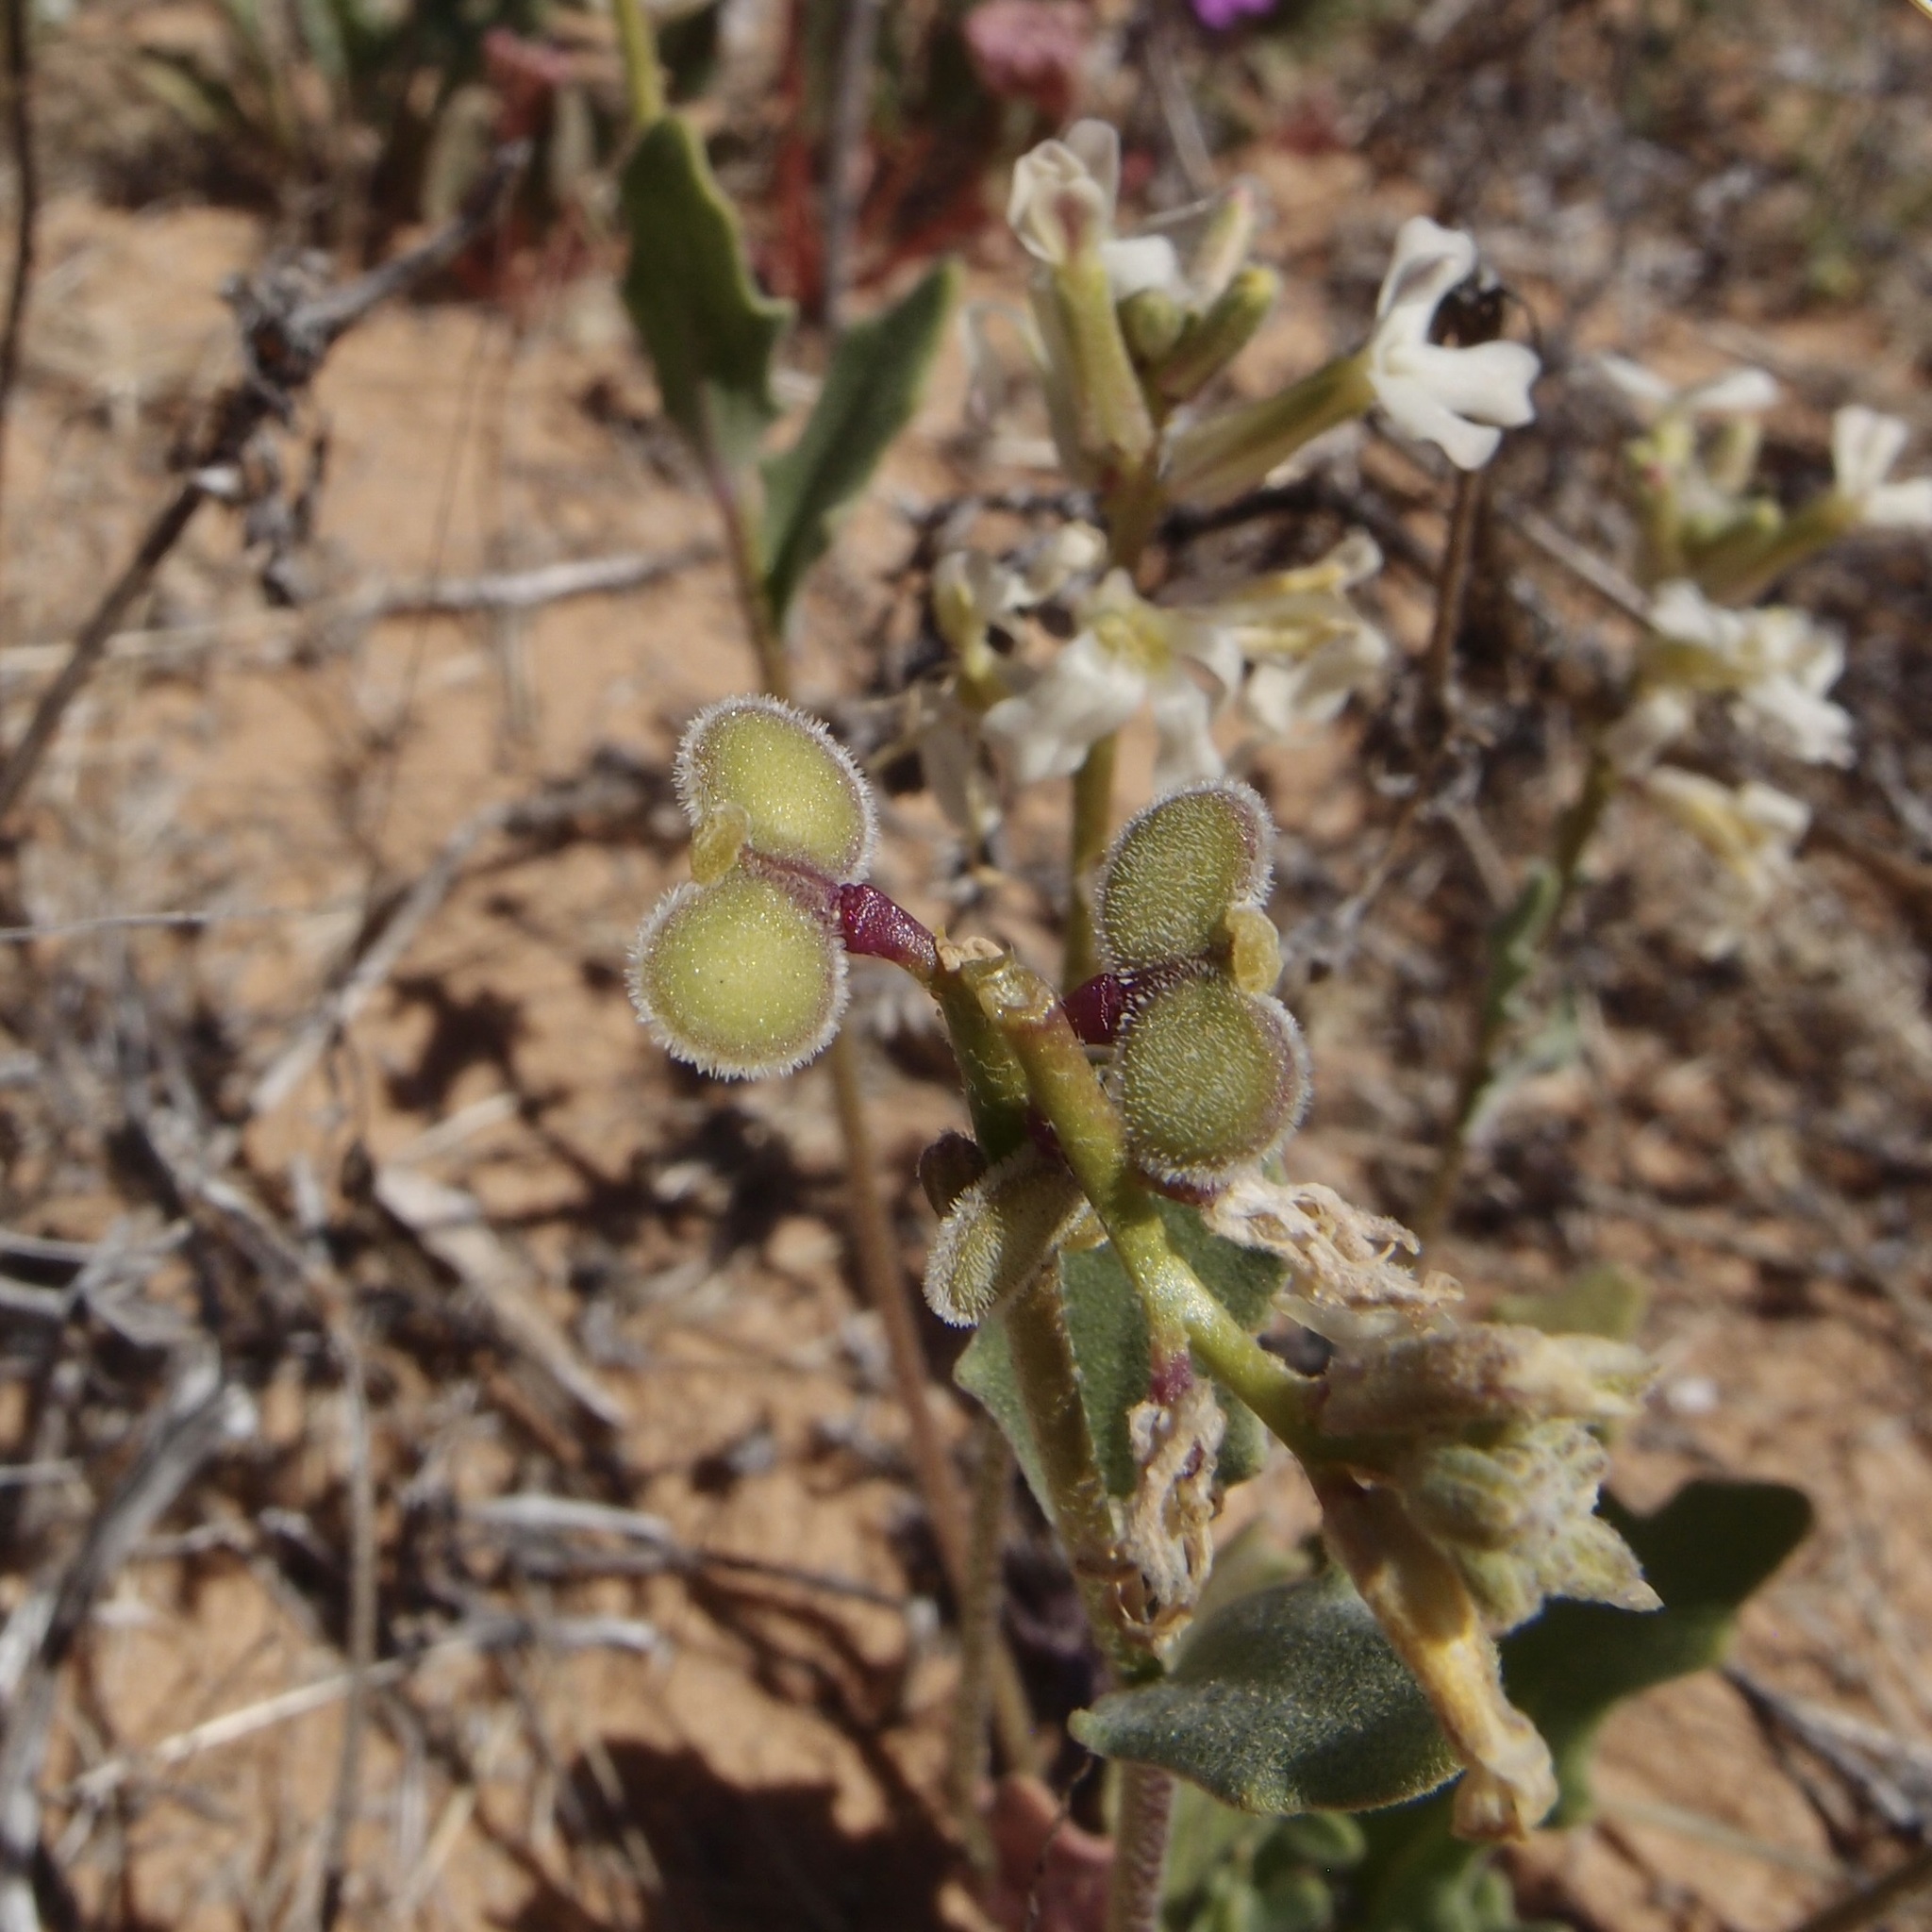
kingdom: Plantae
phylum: Tracheophyta
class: Magnoliopsida
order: Brassicales
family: Brassicaceae
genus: Dithyrea
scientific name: Dithyrea californica
